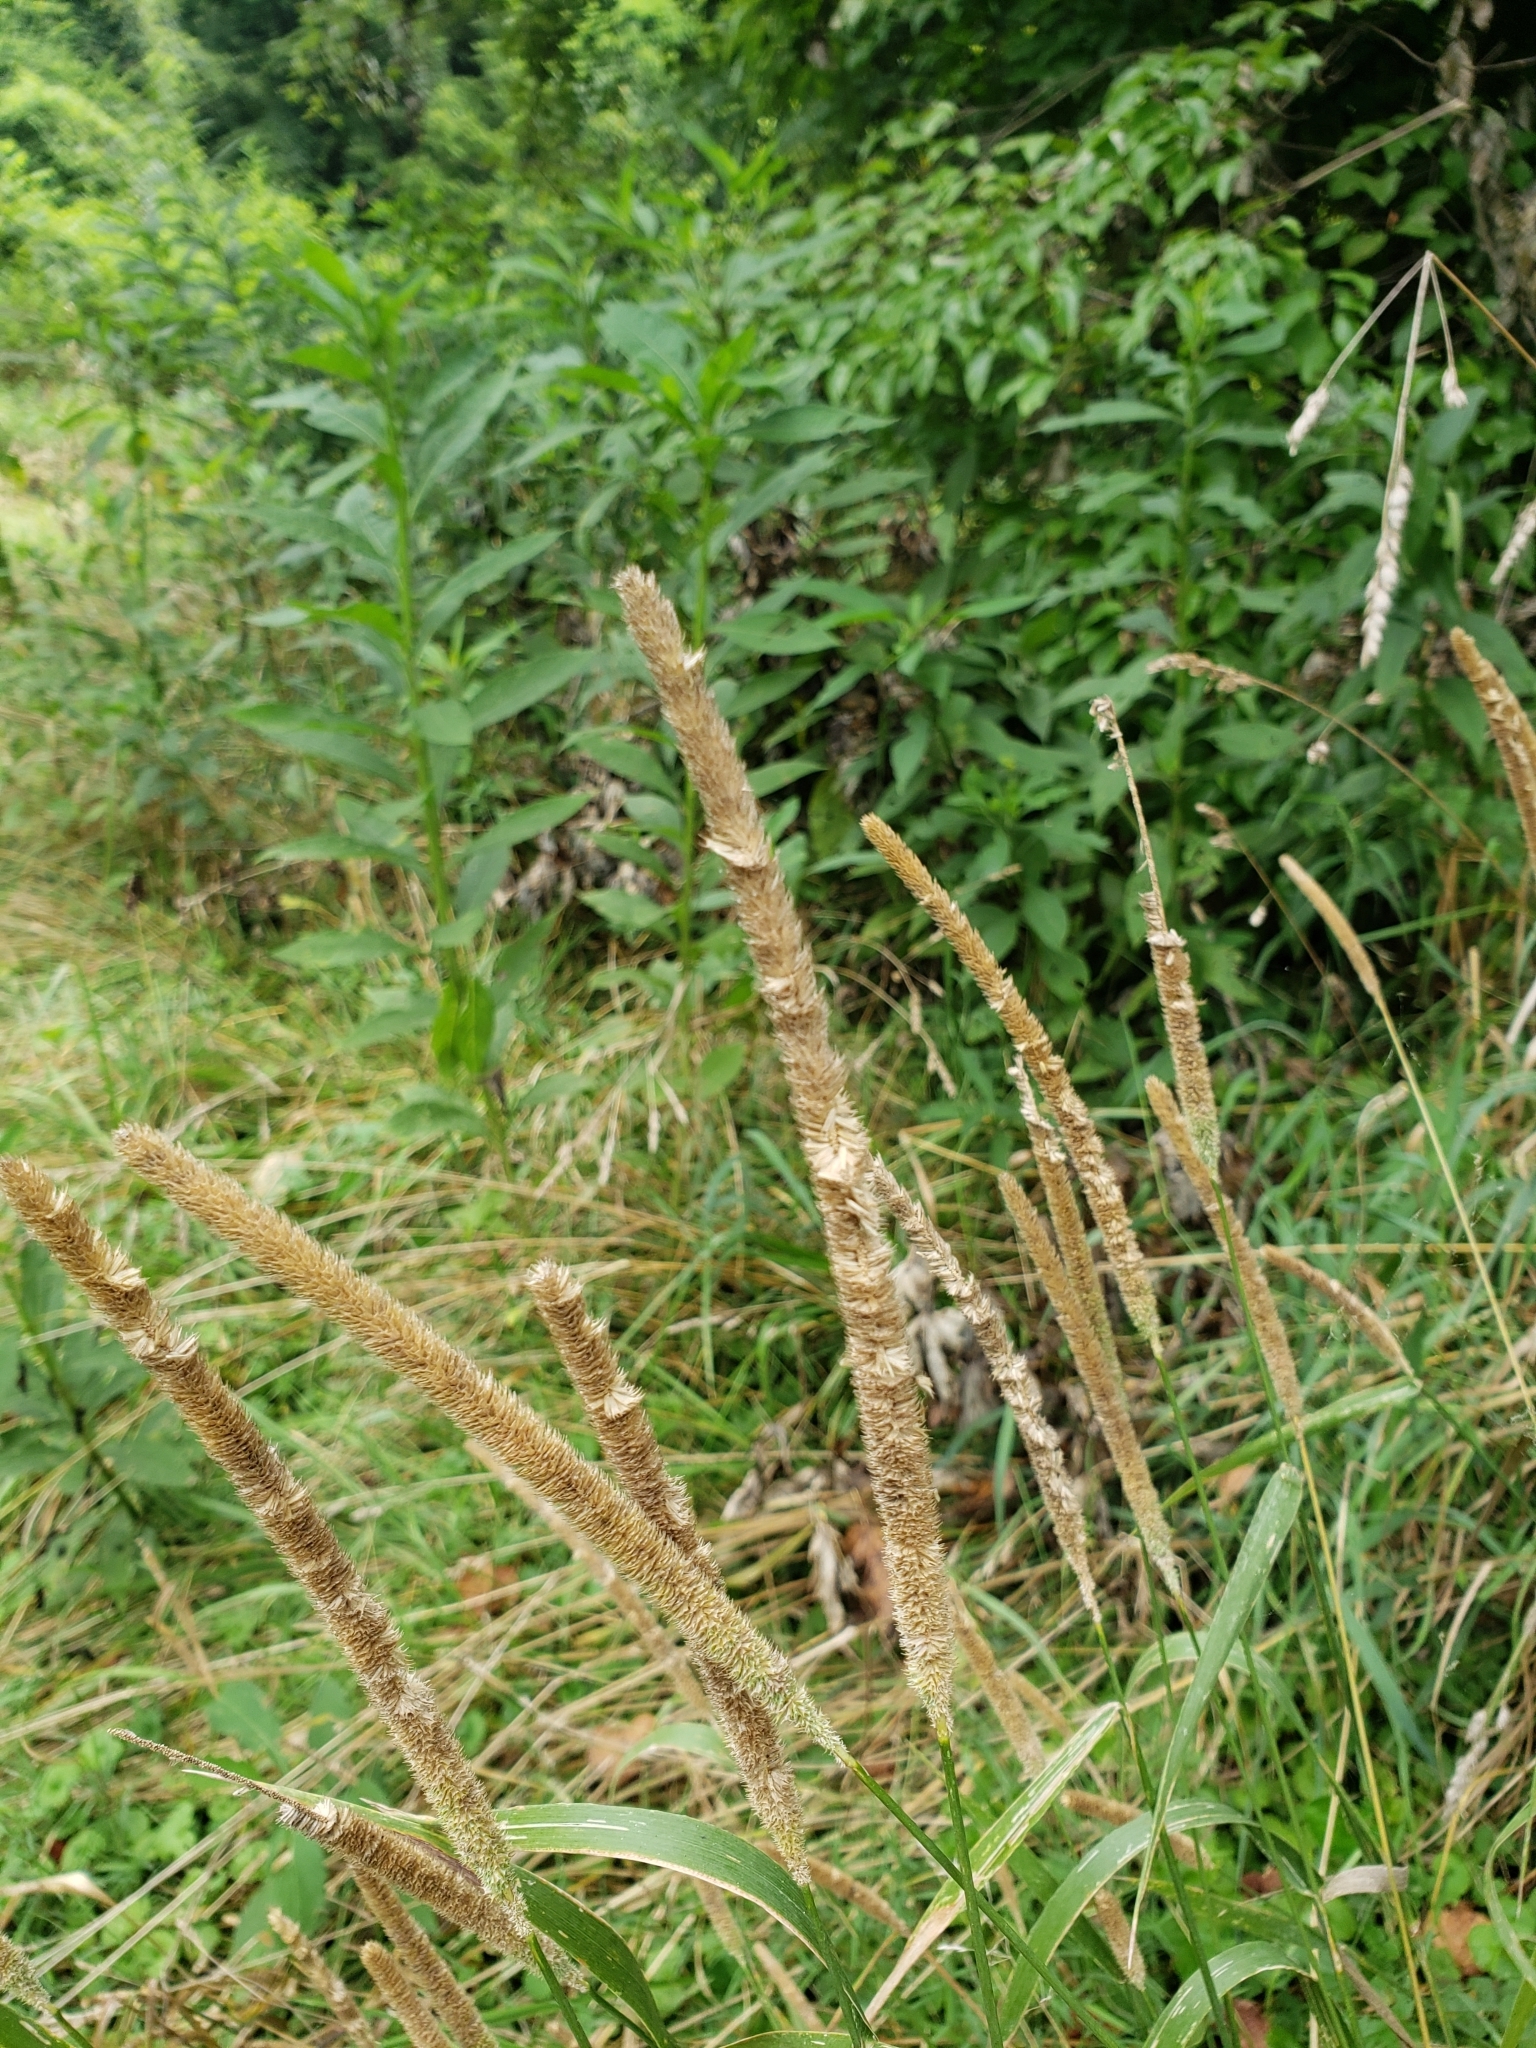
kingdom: Plantae
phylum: Tracheophyta
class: Liliopsida
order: Poales
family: Poaceae
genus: Phleum
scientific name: Phleum pratense
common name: Timothy grass
